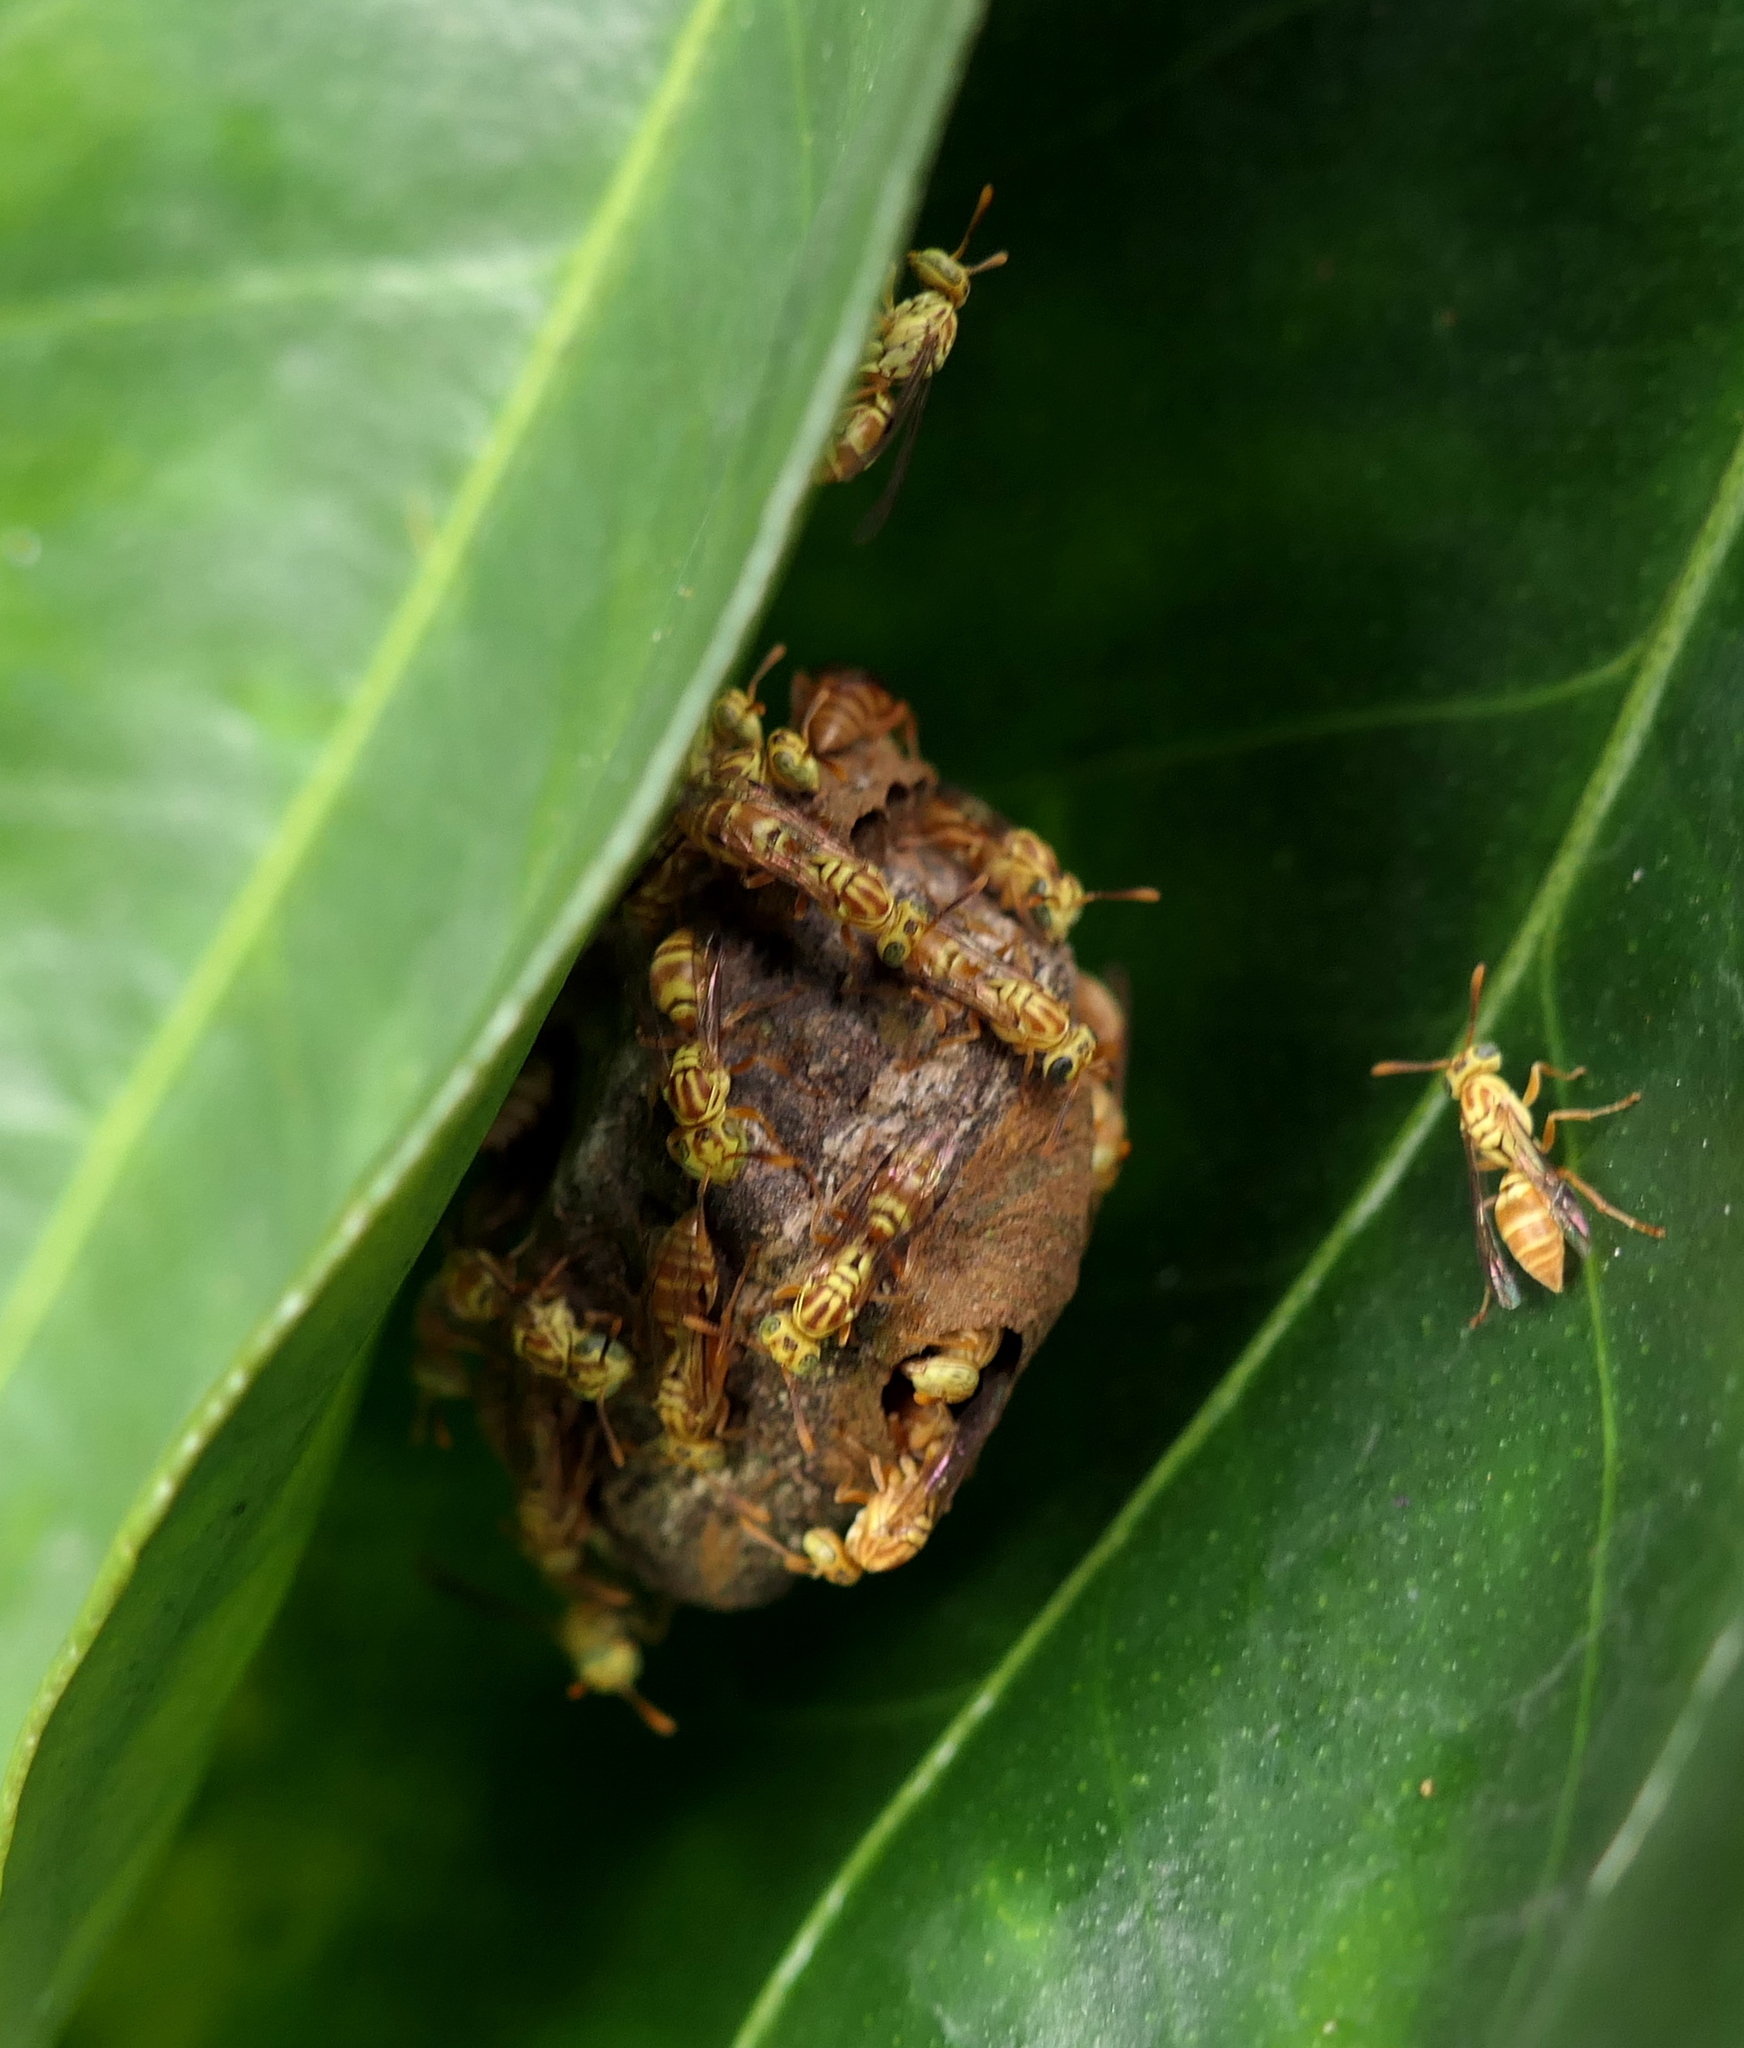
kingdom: Animalia
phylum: Arthropoda
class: Insecta
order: Hymenoptera
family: Vespidae
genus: Protopolybia
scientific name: Protopolybia potiguara
